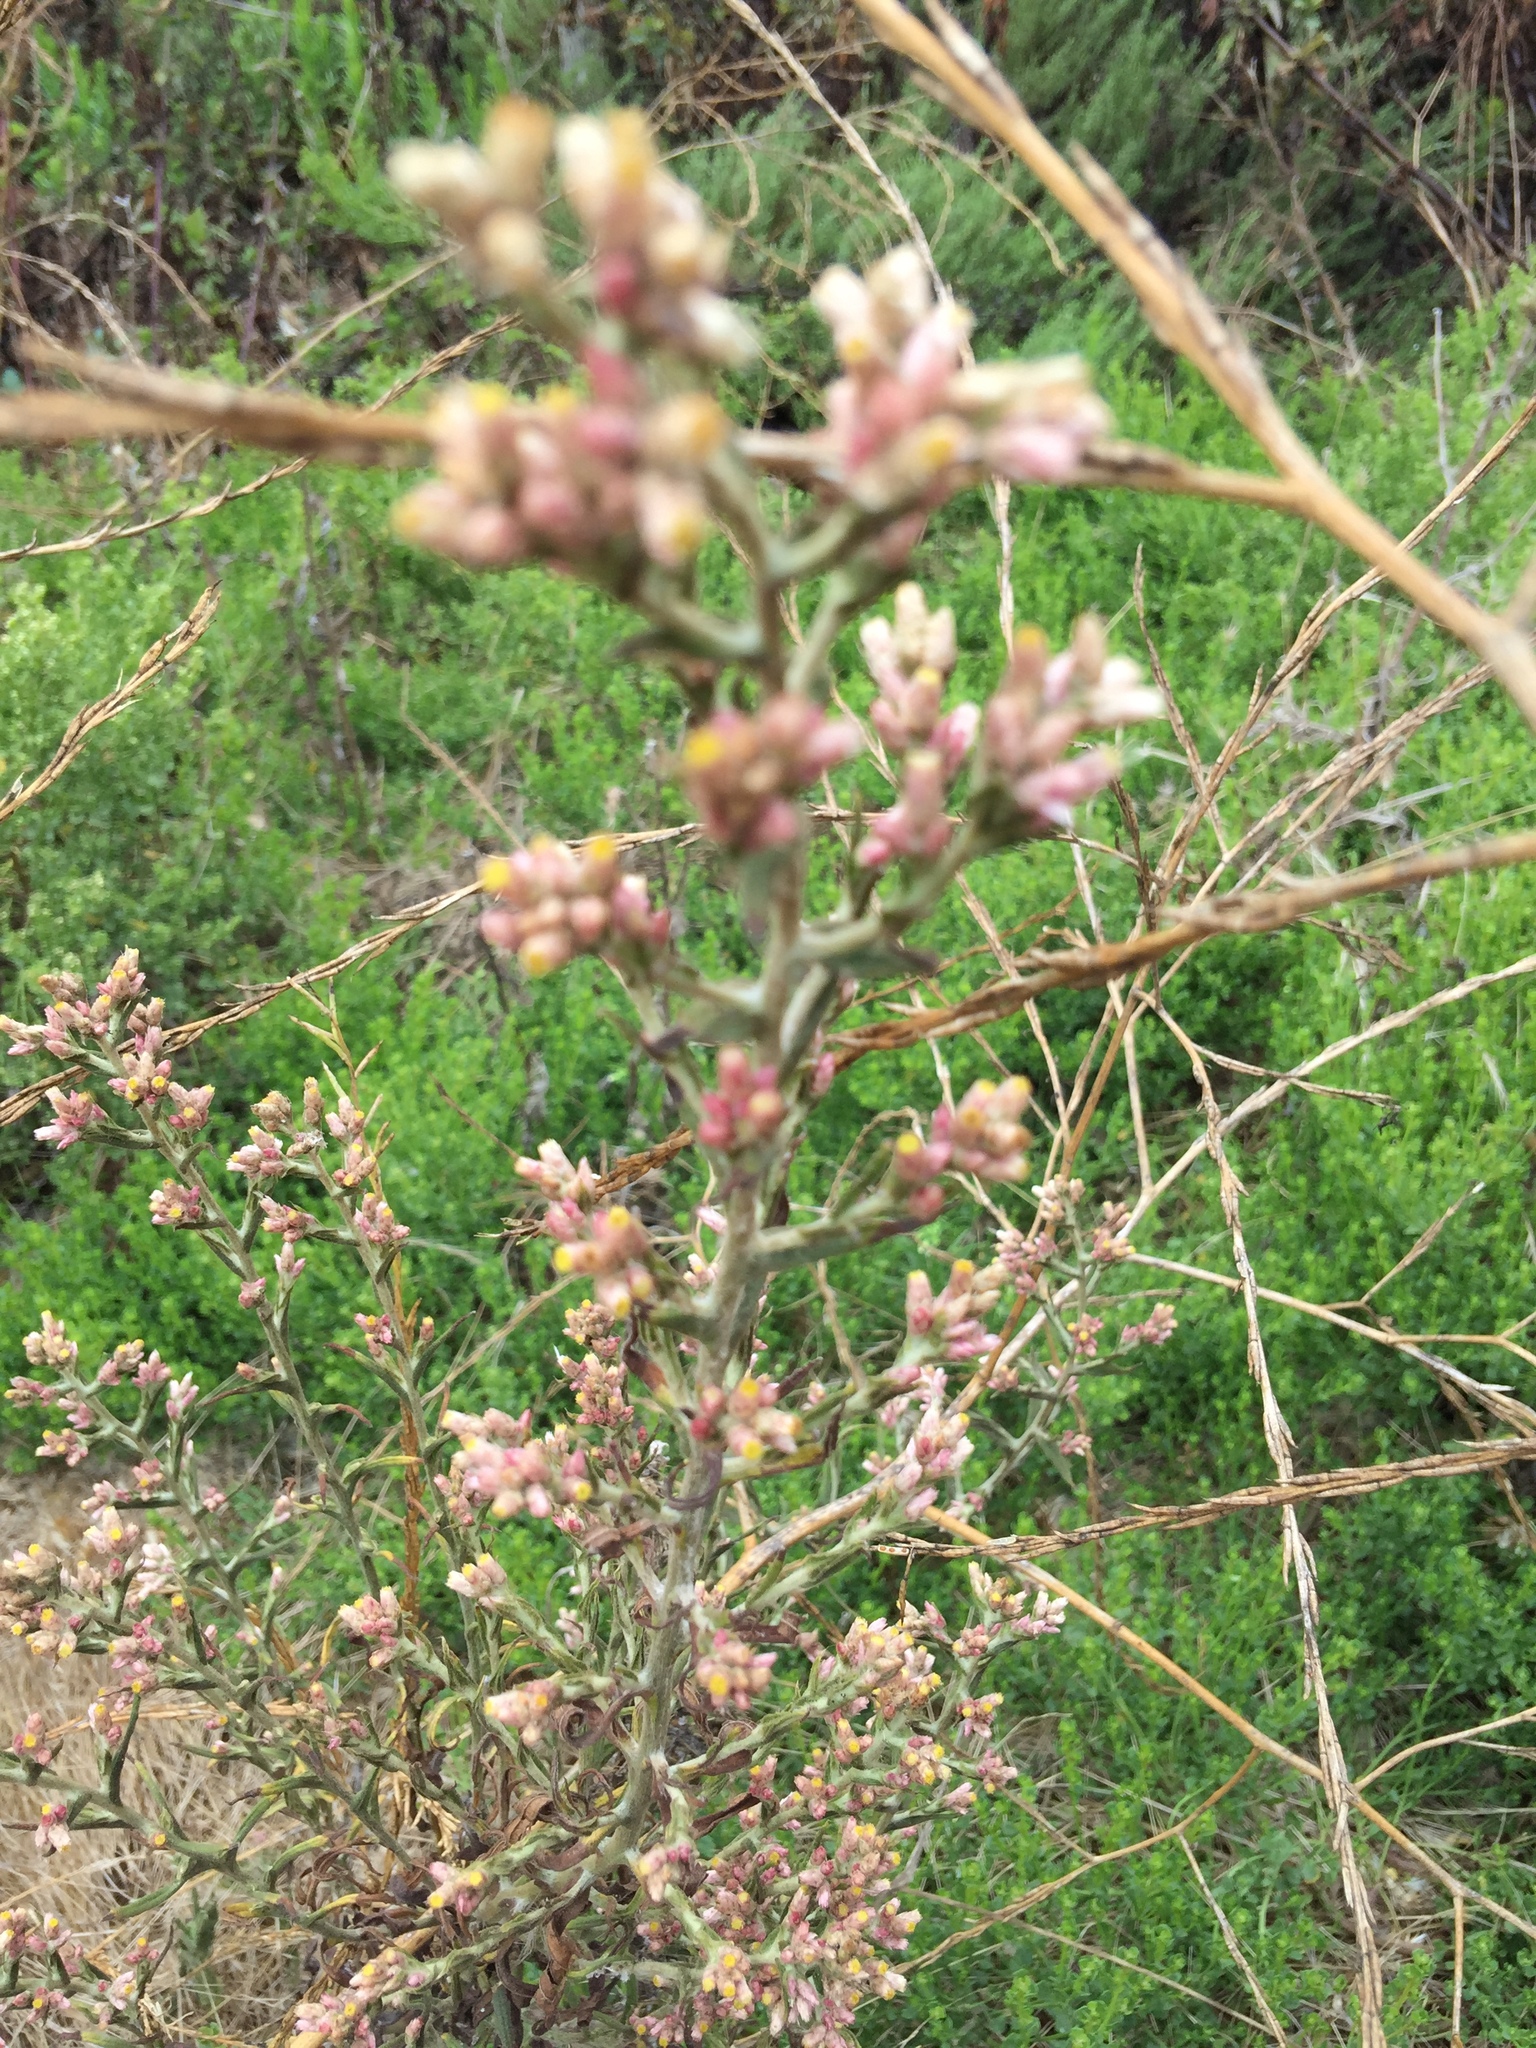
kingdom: Plantae
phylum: Tracheophyta
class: Magnoliopsida
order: Asterales
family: Asteraceae
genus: Pseudognaphalium
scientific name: Pseudognaphalium ramosissimum
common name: Pink rabbit-tobacco
